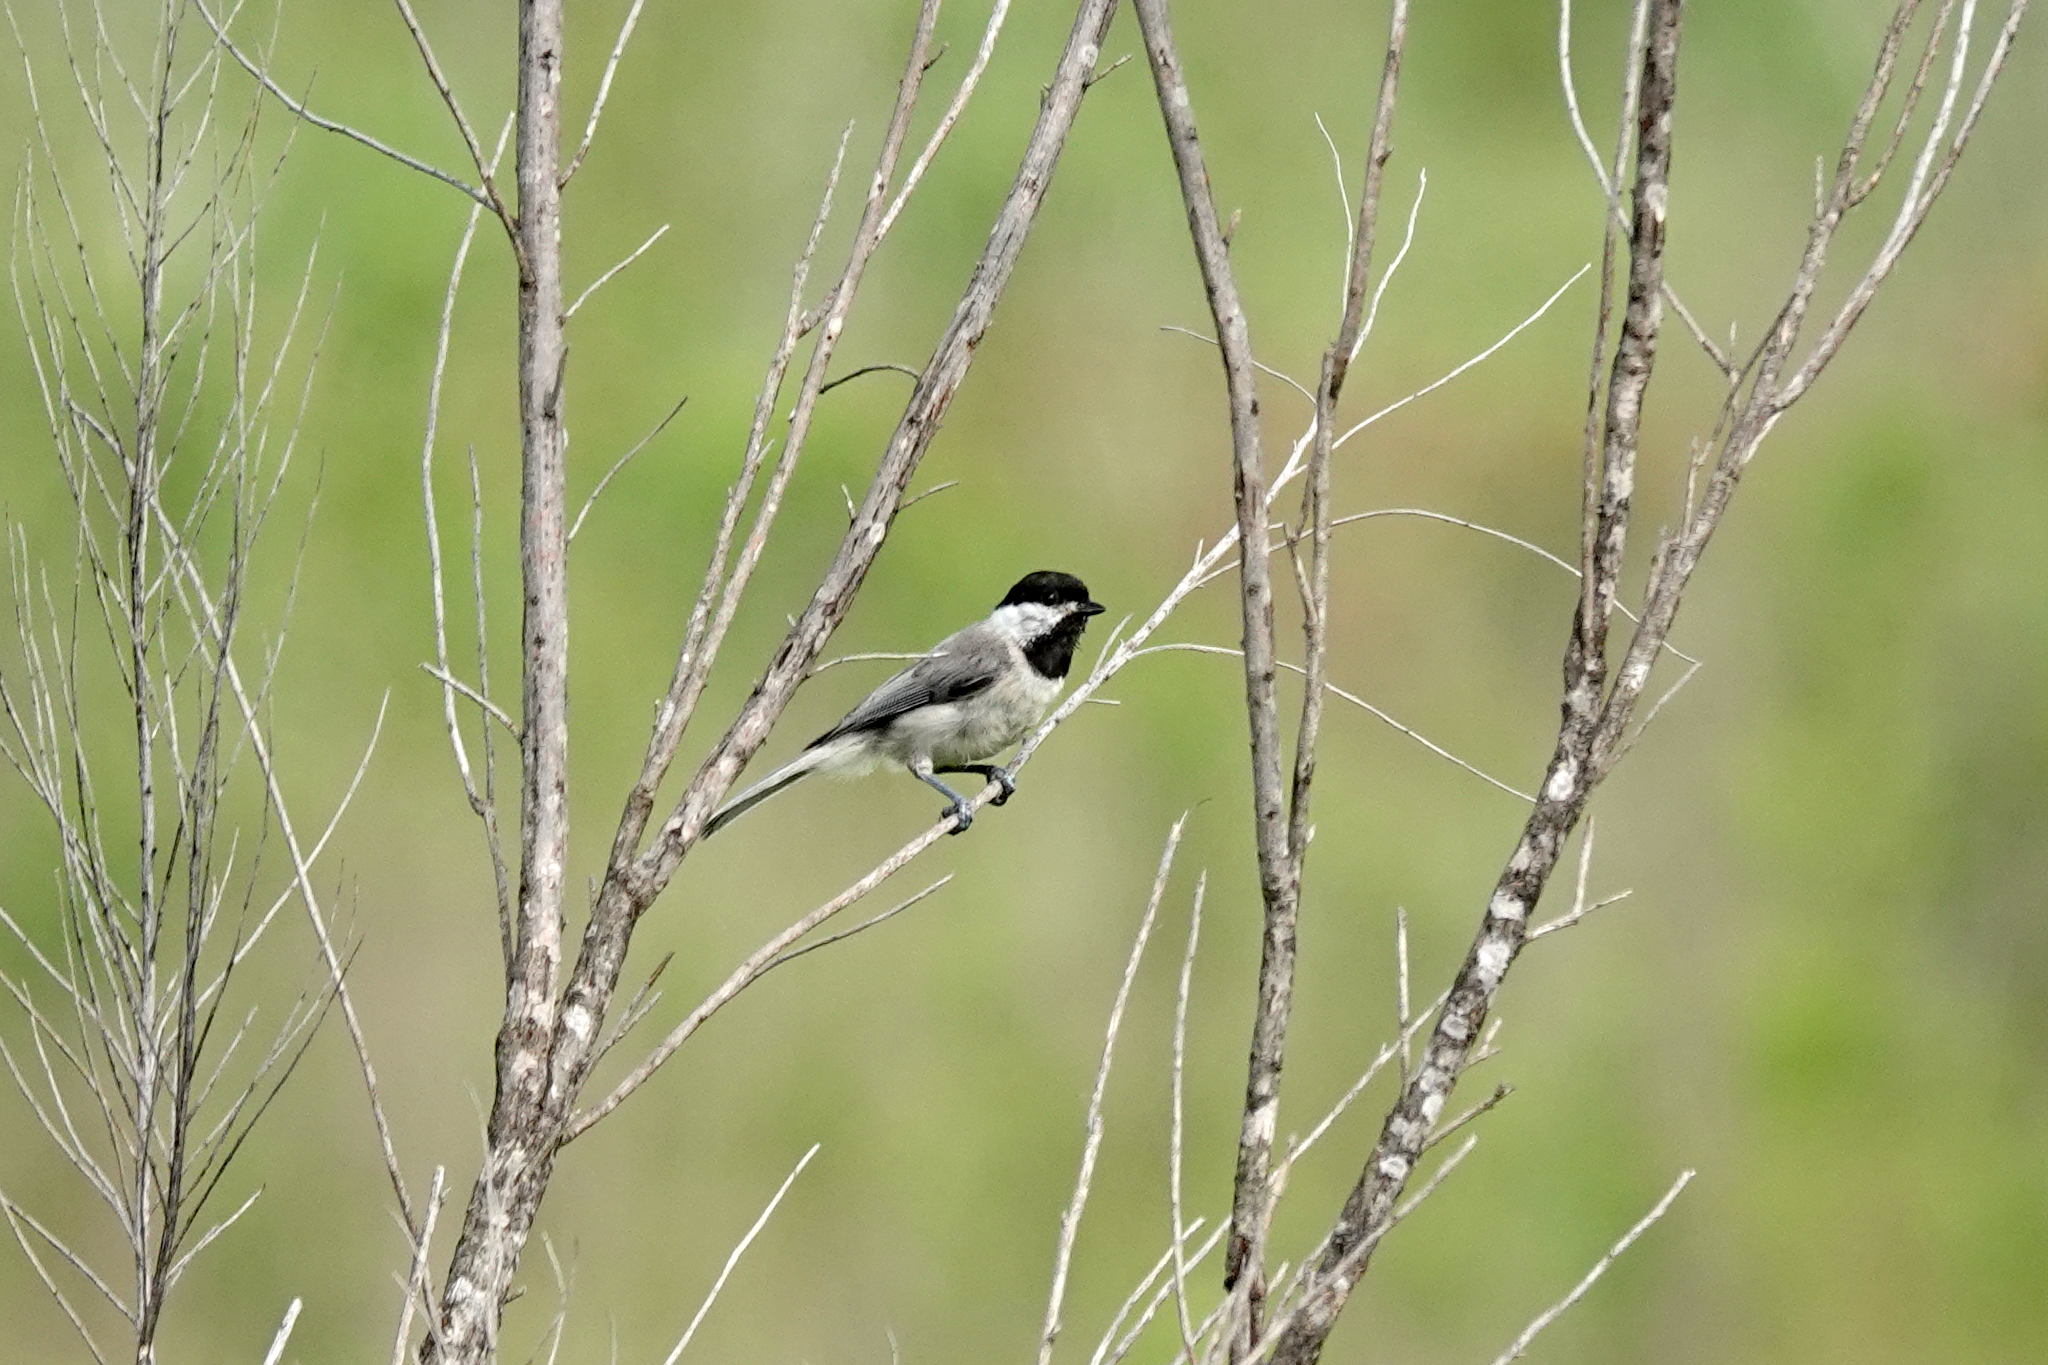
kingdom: Animalia
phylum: Chordata
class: Aves
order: Passeriformes
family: Paridae
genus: Poecile
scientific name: Poecile carolinensis
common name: Carolina chickadee
